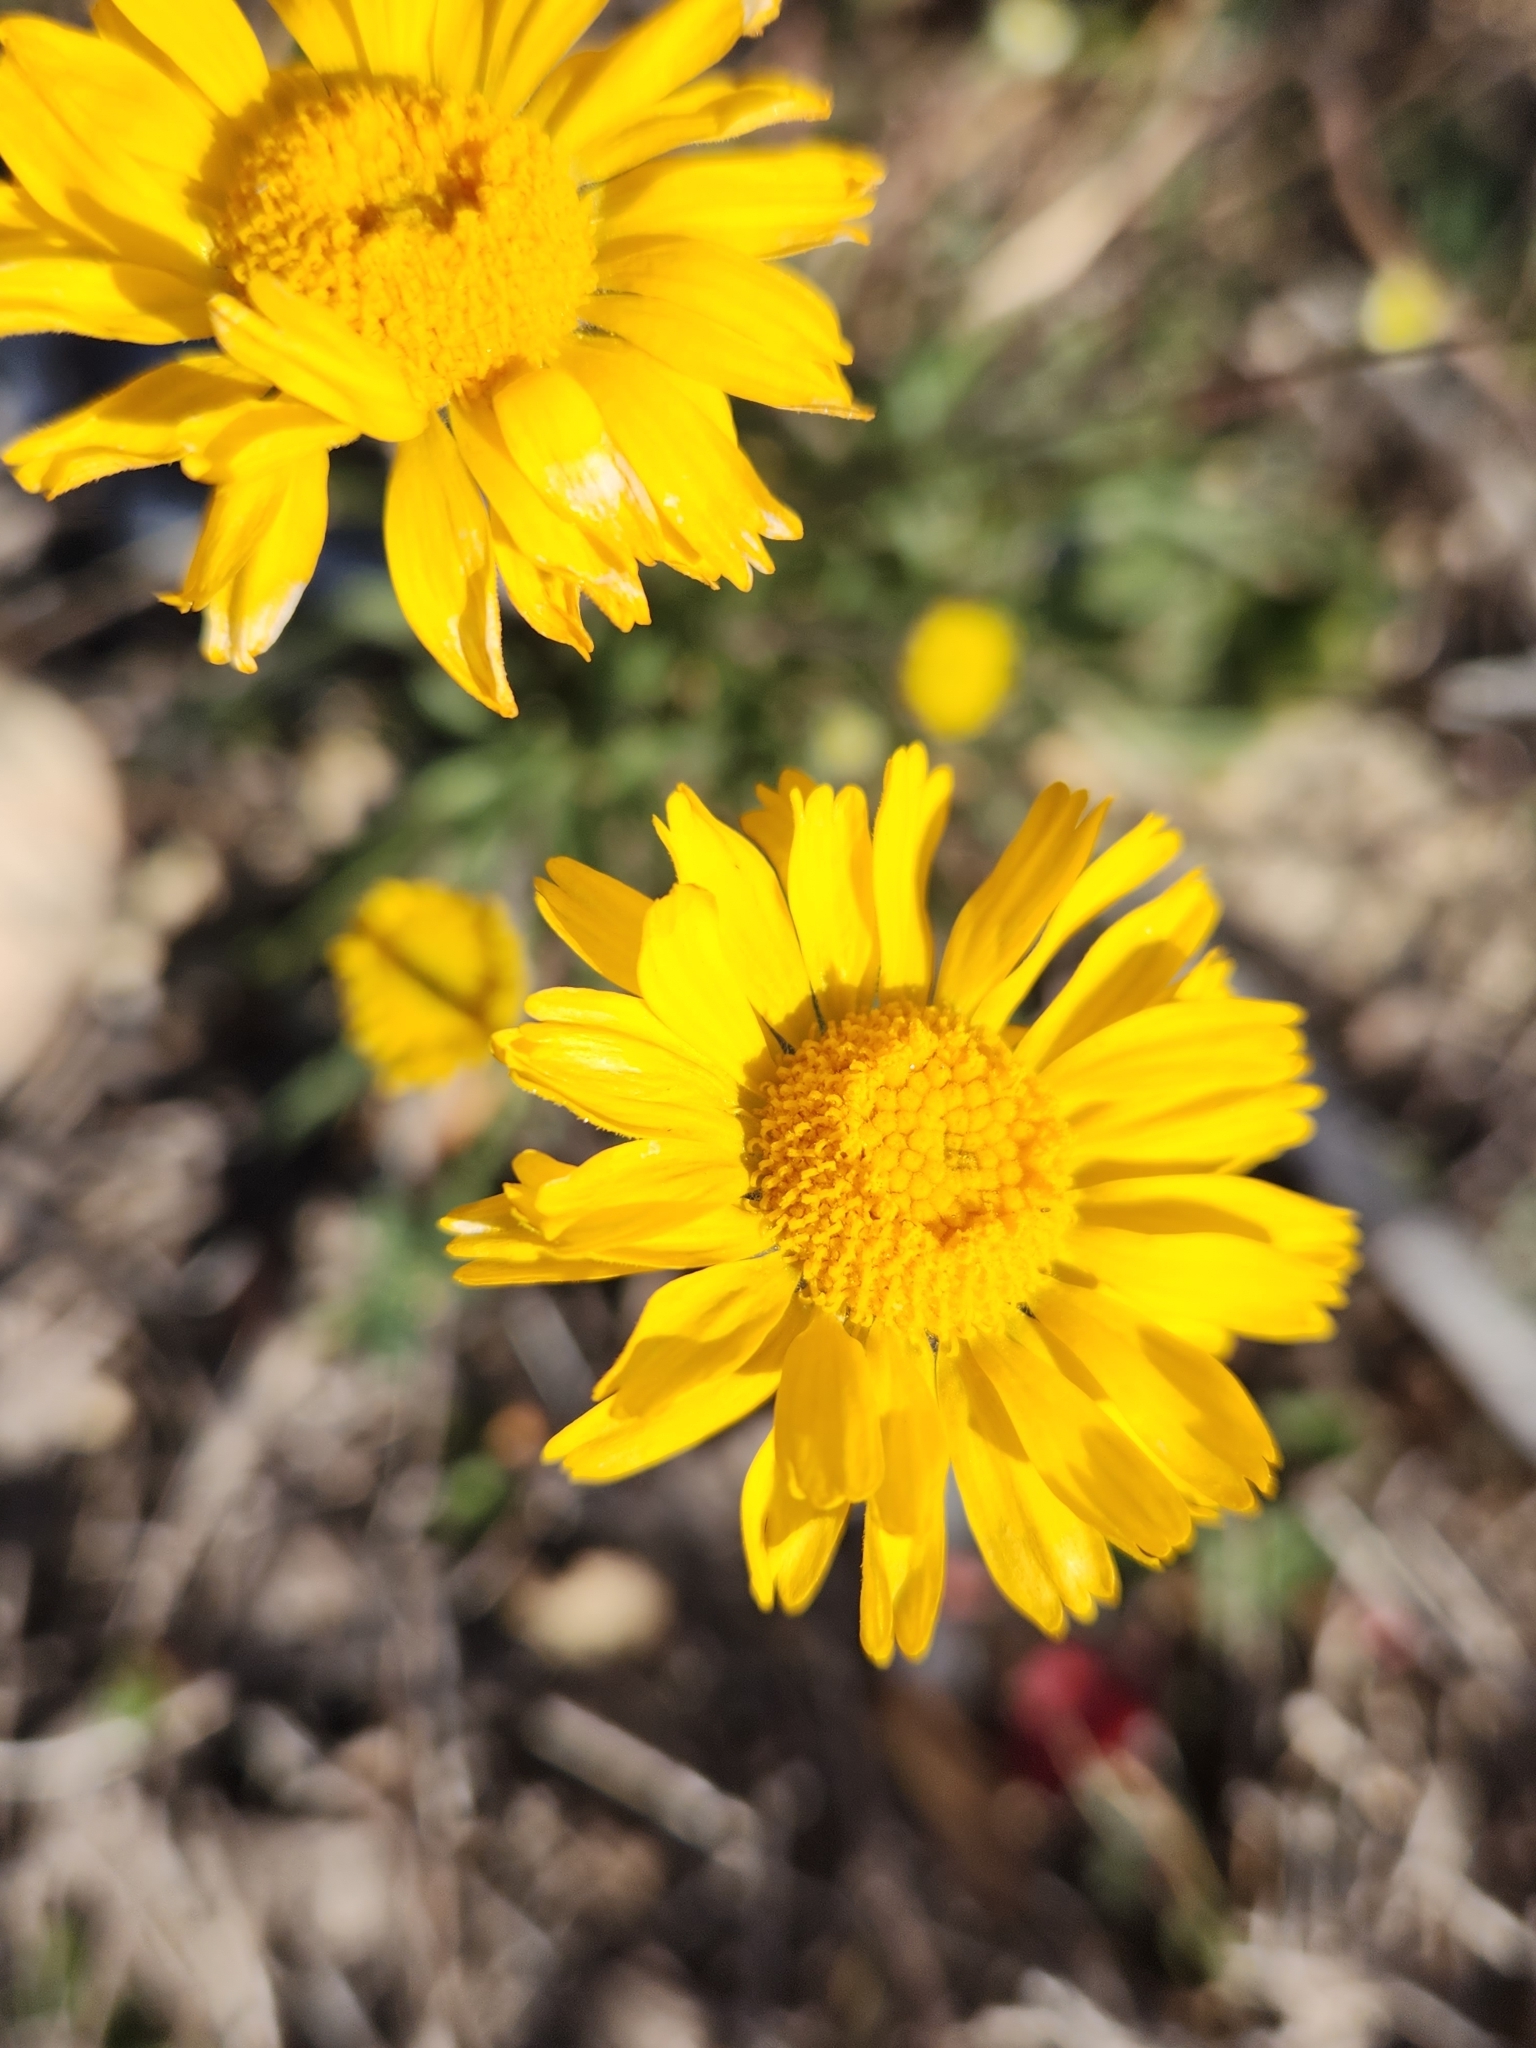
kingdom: Plantae
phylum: Tracheophyta
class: Magnoliopsida
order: Asterales
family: Asteraceae
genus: Tetraneuris
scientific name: Tetraneuris scaposa
